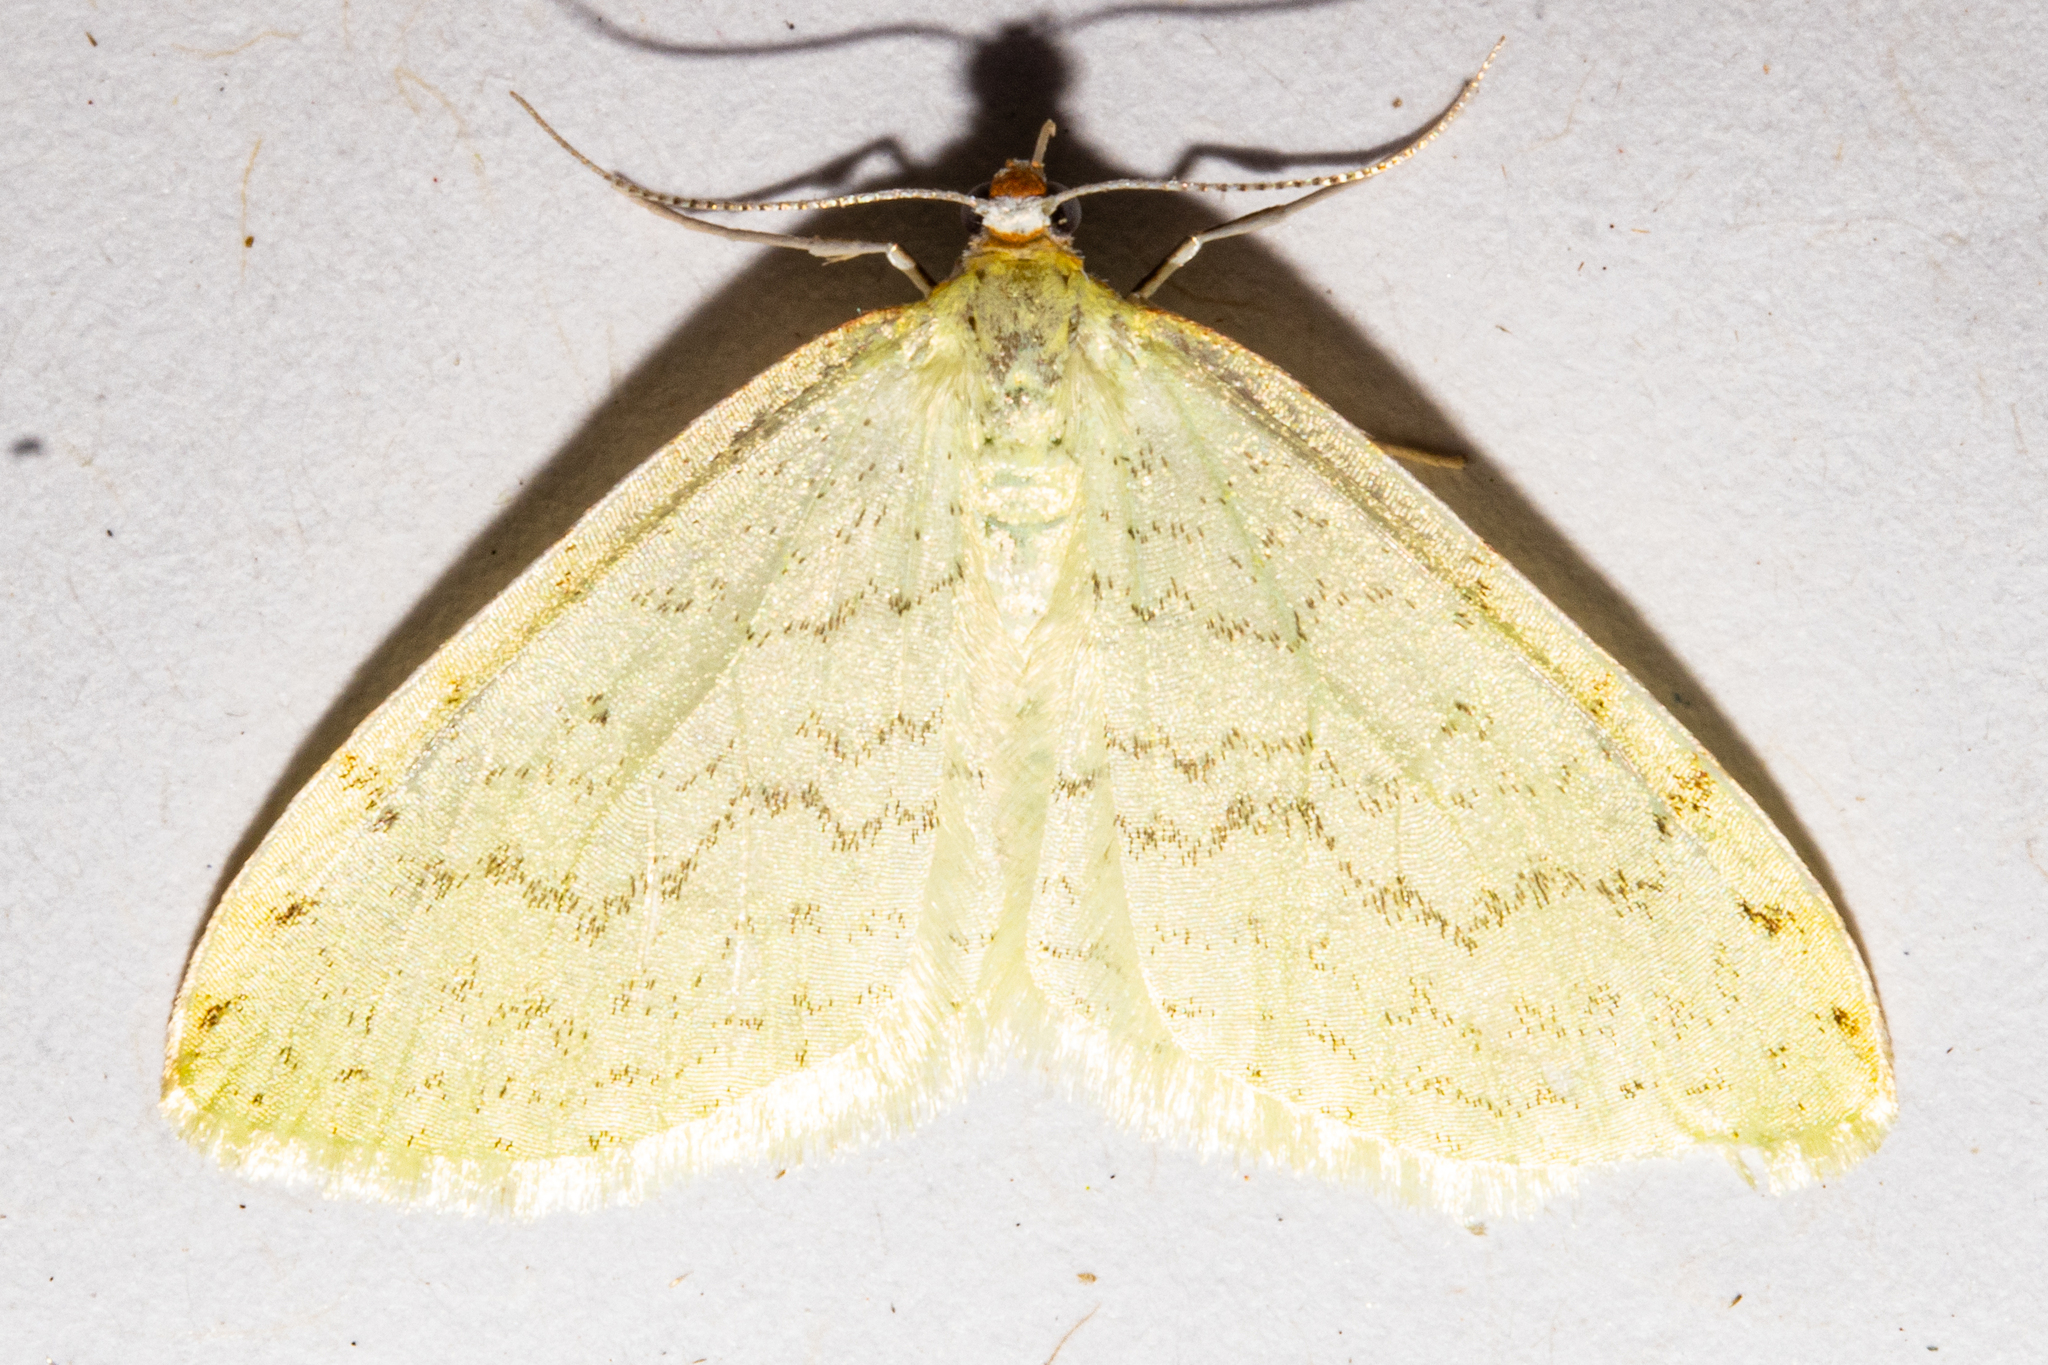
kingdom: Animalia
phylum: Arthropoda
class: Insecta
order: Lepidoptera
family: Geometridae
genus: Epiphryne
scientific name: Epiphryne undosata
